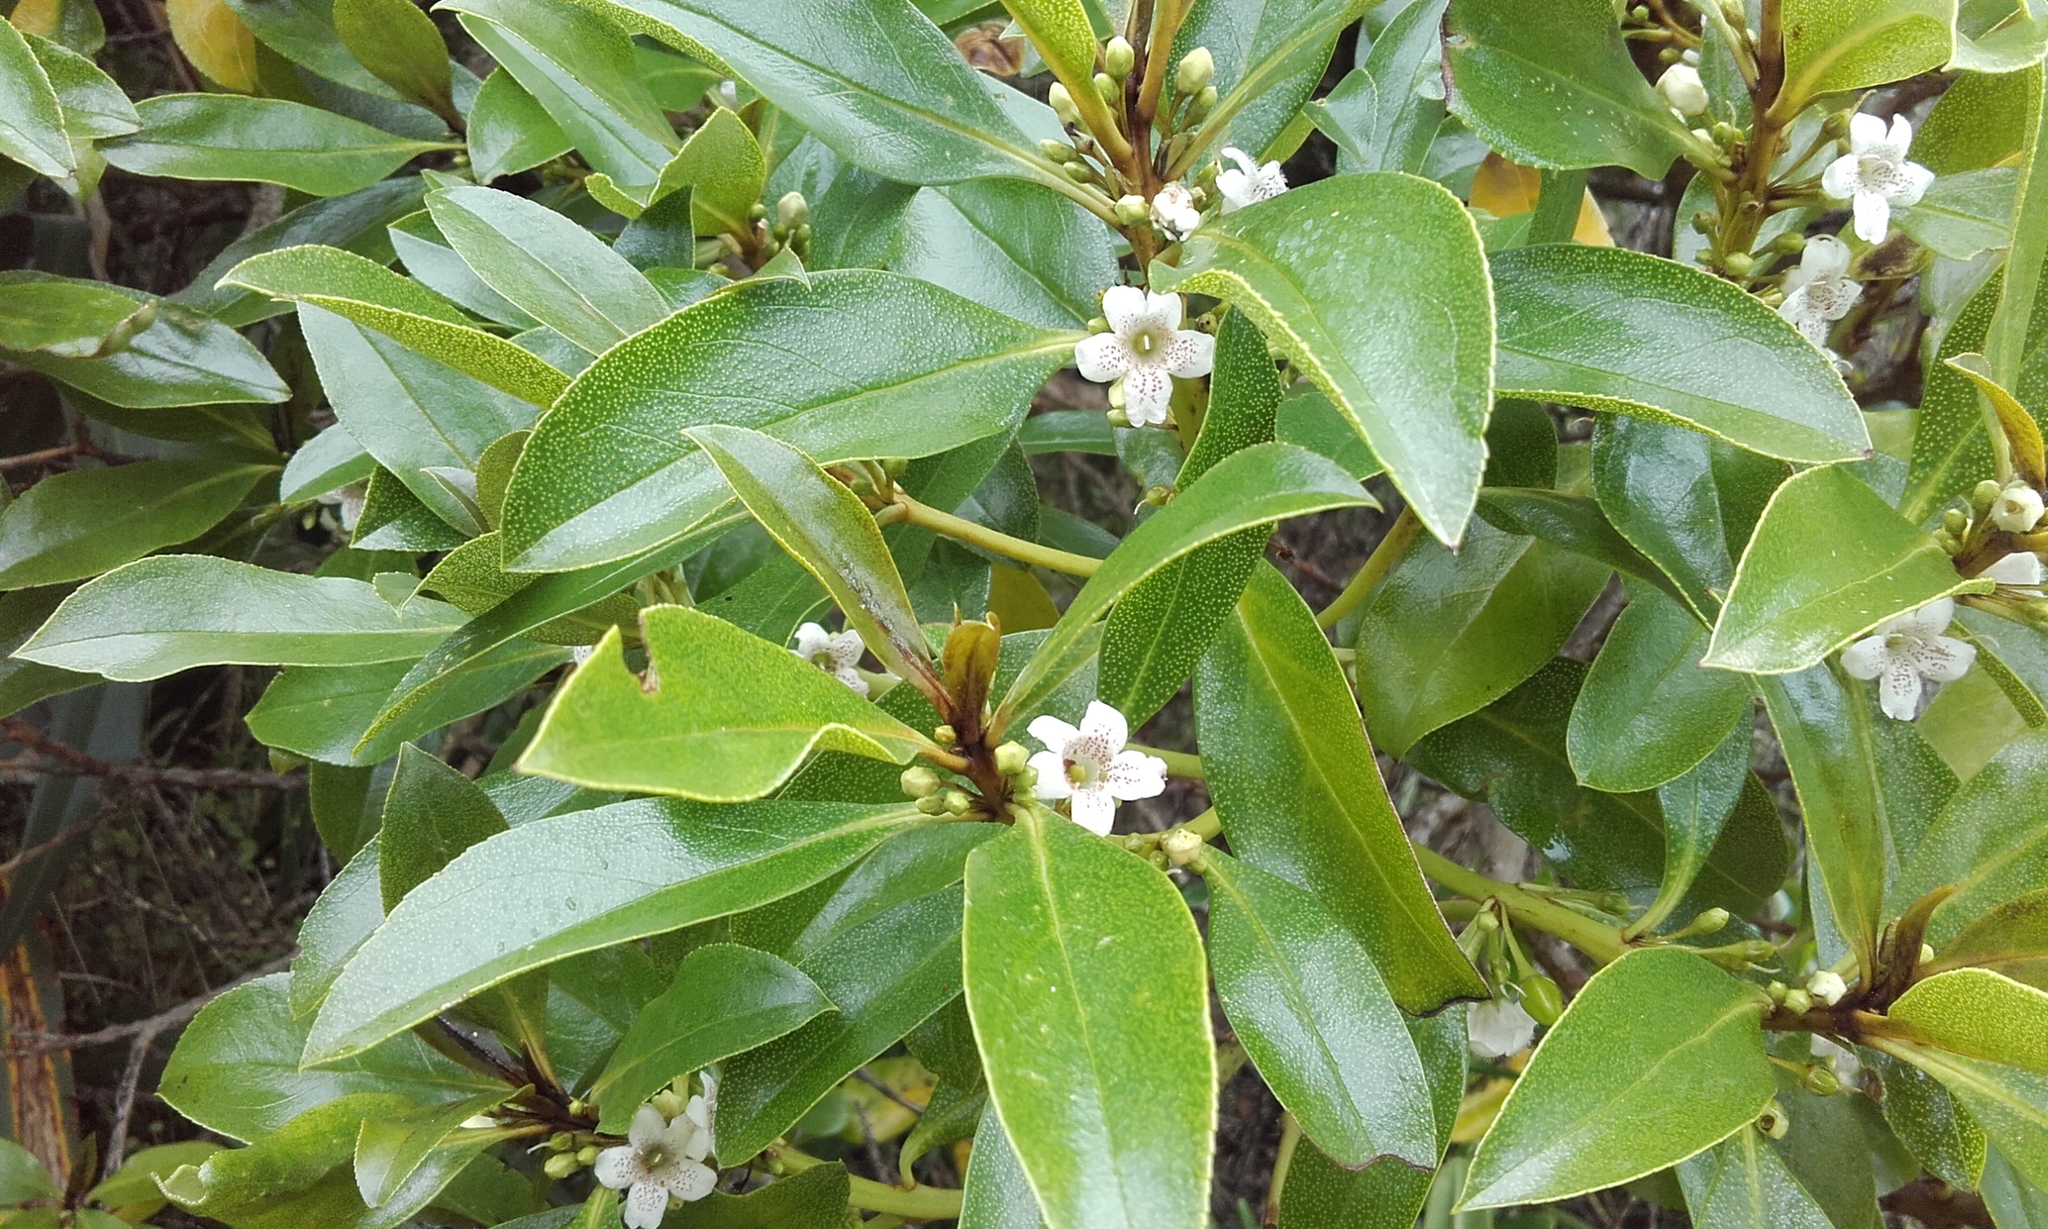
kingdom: Plantae
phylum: Tracheophyta
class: Magnoliopsida
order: Lamiales
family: Scrophulariaceae
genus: Myoporum
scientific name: Myoporum laetum
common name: Ngaio tree
